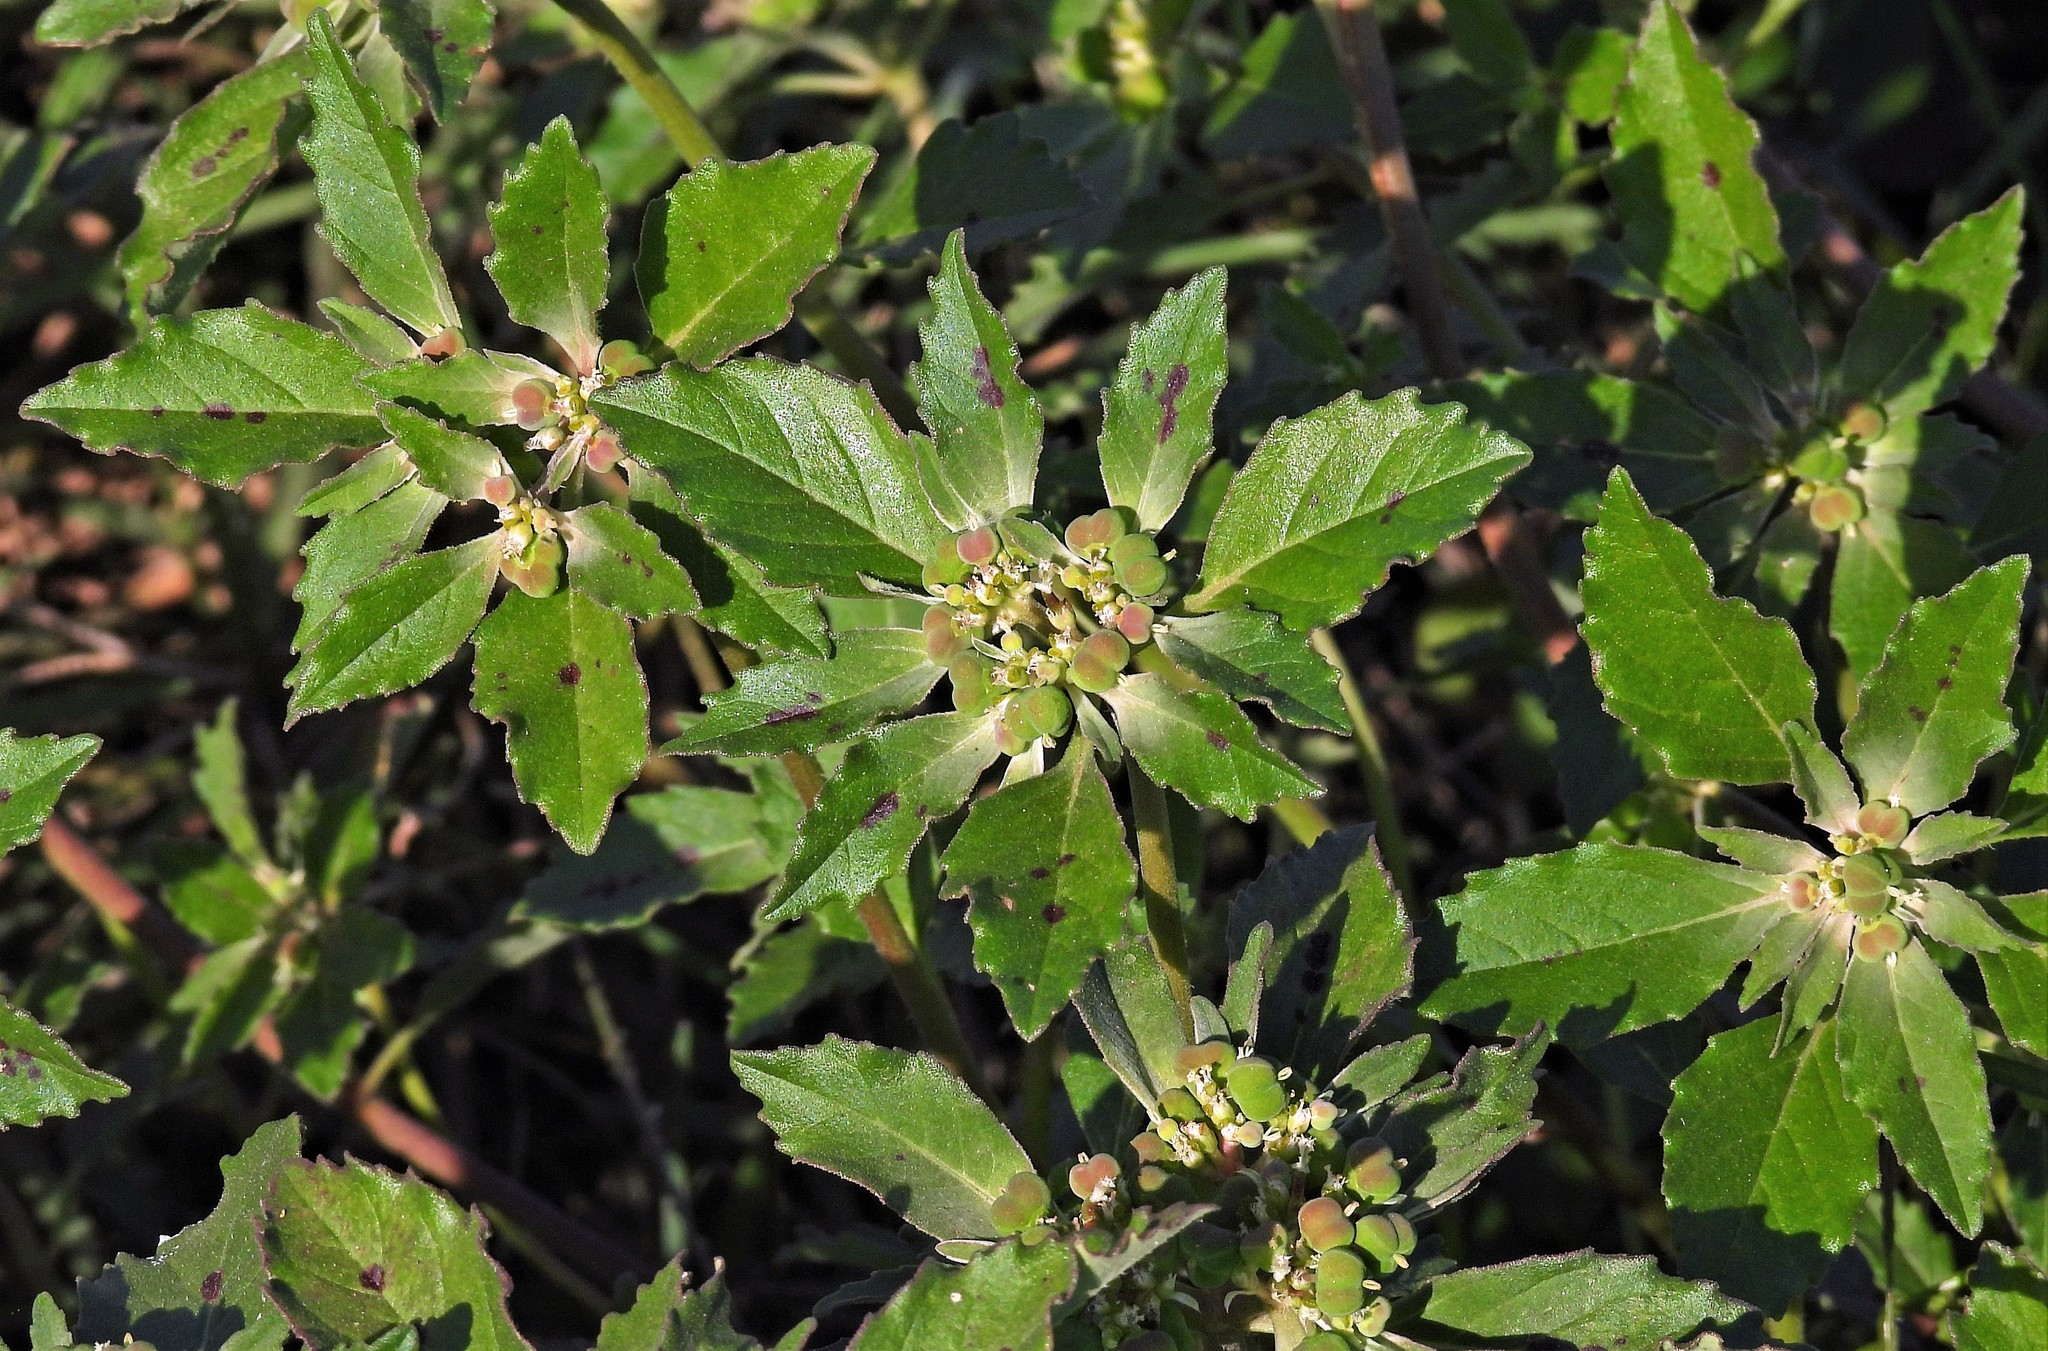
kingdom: Plantae
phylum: Tracheophyta
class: Magnoliopsida
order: Malpighiales
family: Euphorbiaceae
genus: Euphorbia
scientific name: Euphorbia davidii
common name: David's spurge
